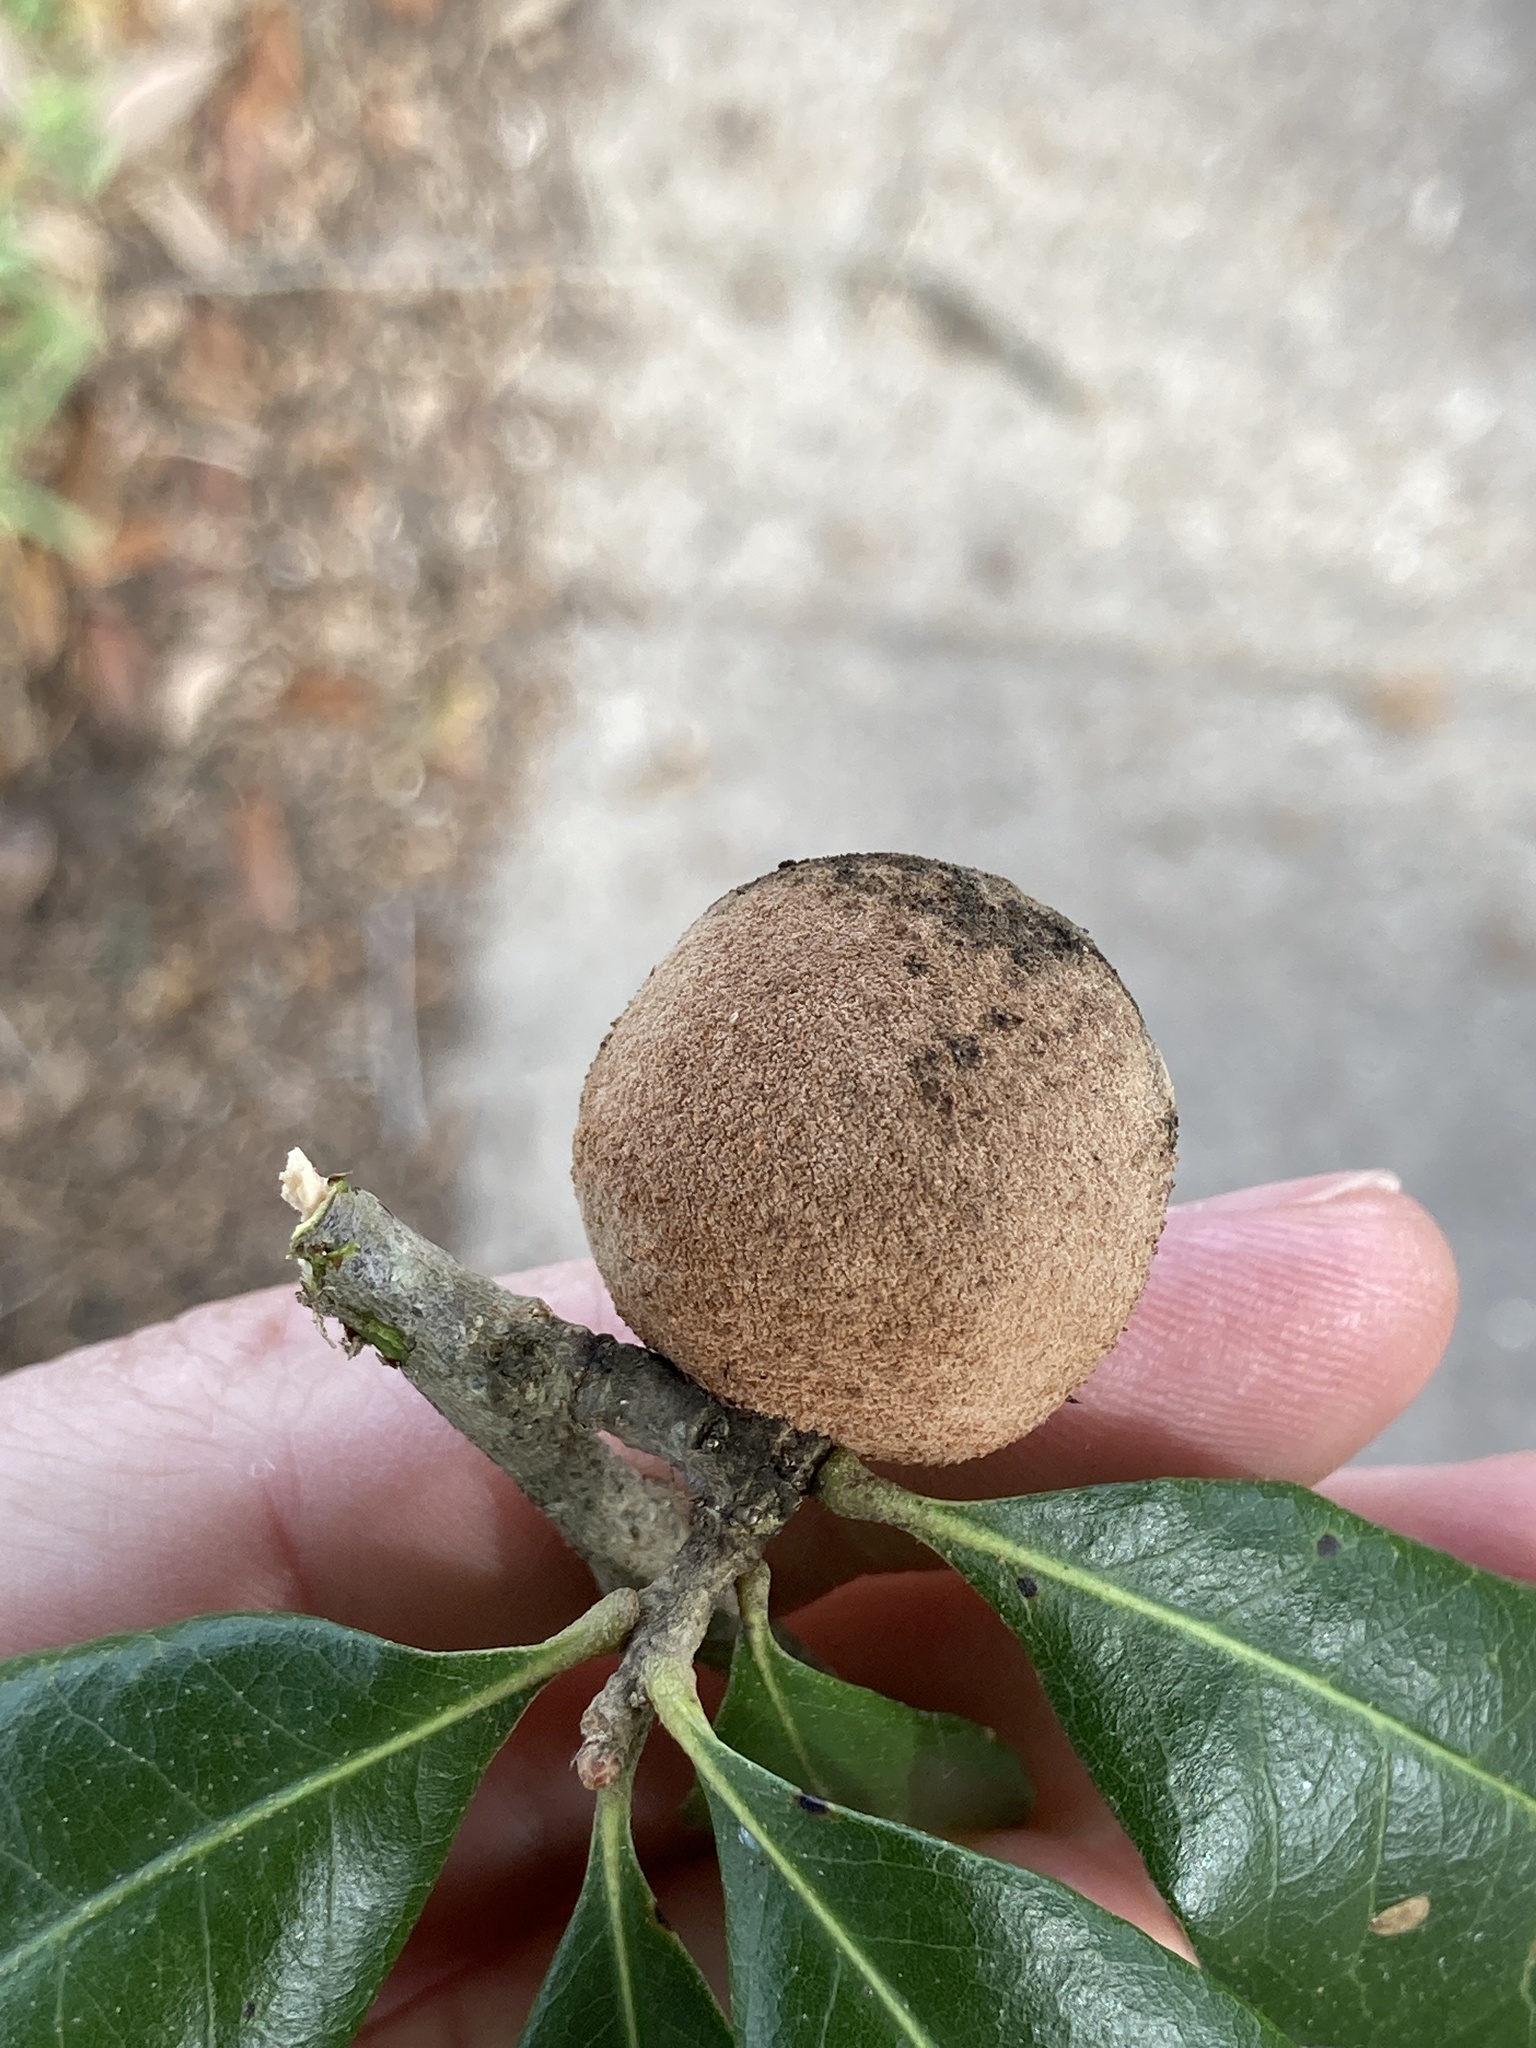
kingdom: Animalia
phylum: Arthropoda
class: Insecta
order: Hymenoptera
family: Cynipidae
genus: Disholcaspis
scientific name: Disholcaspis
